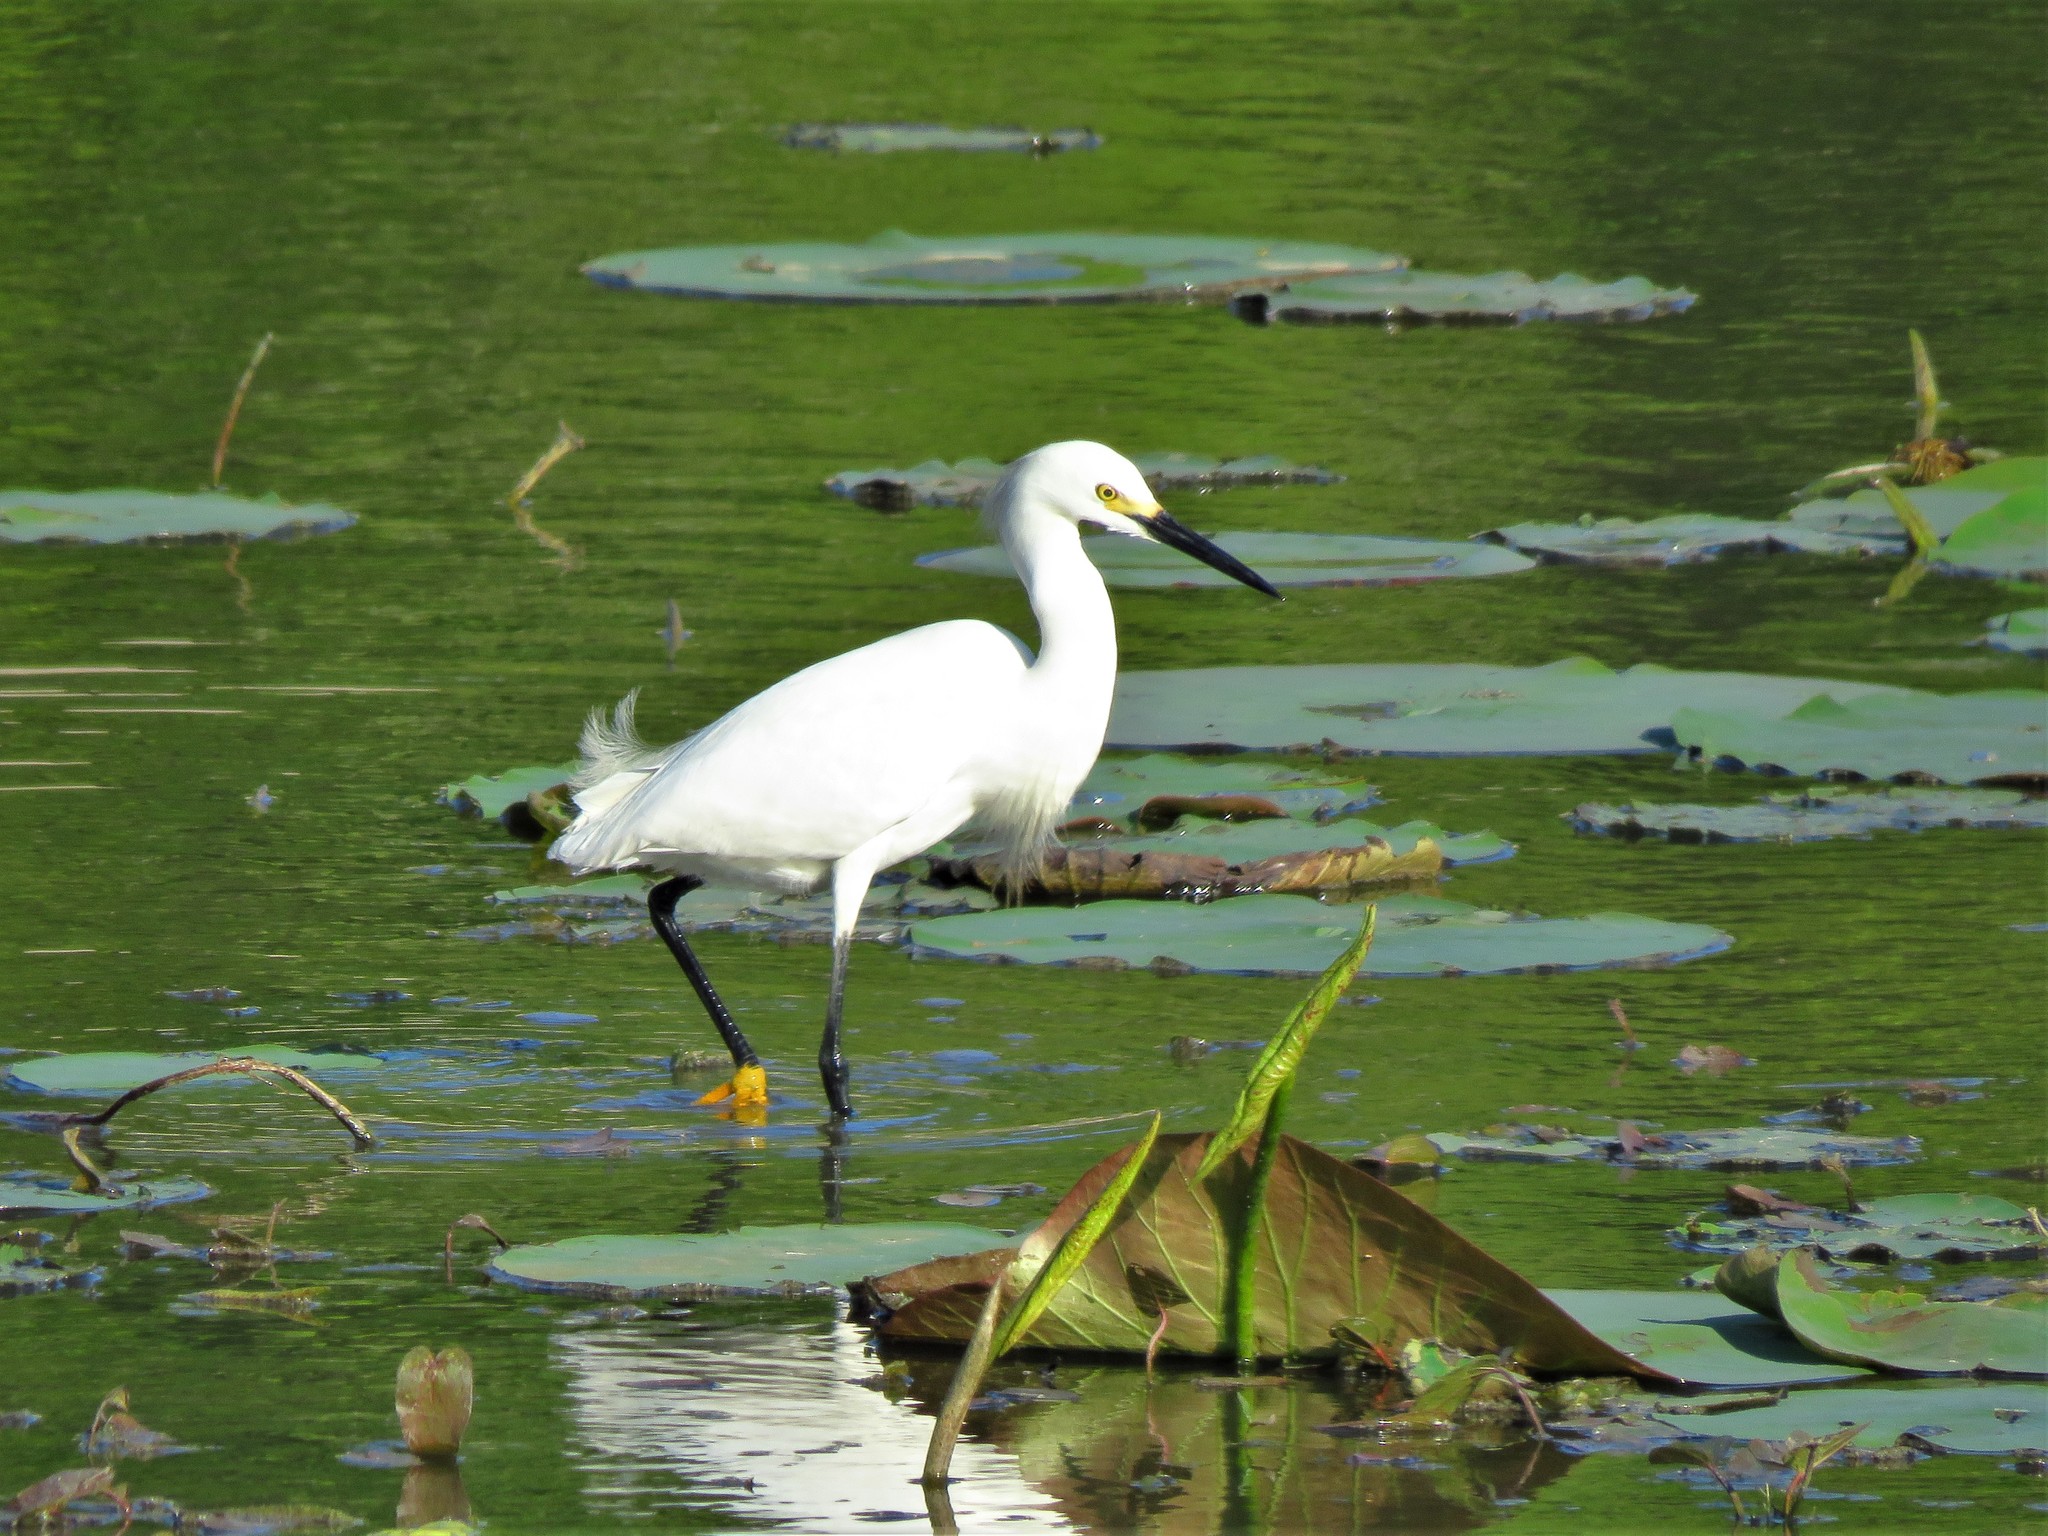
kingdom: Animalia
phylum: Chordata
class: Aves
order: Pelecaniformes
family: Ardeidae
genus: Egretta
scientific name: Egretta thula
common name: Snowy egret
